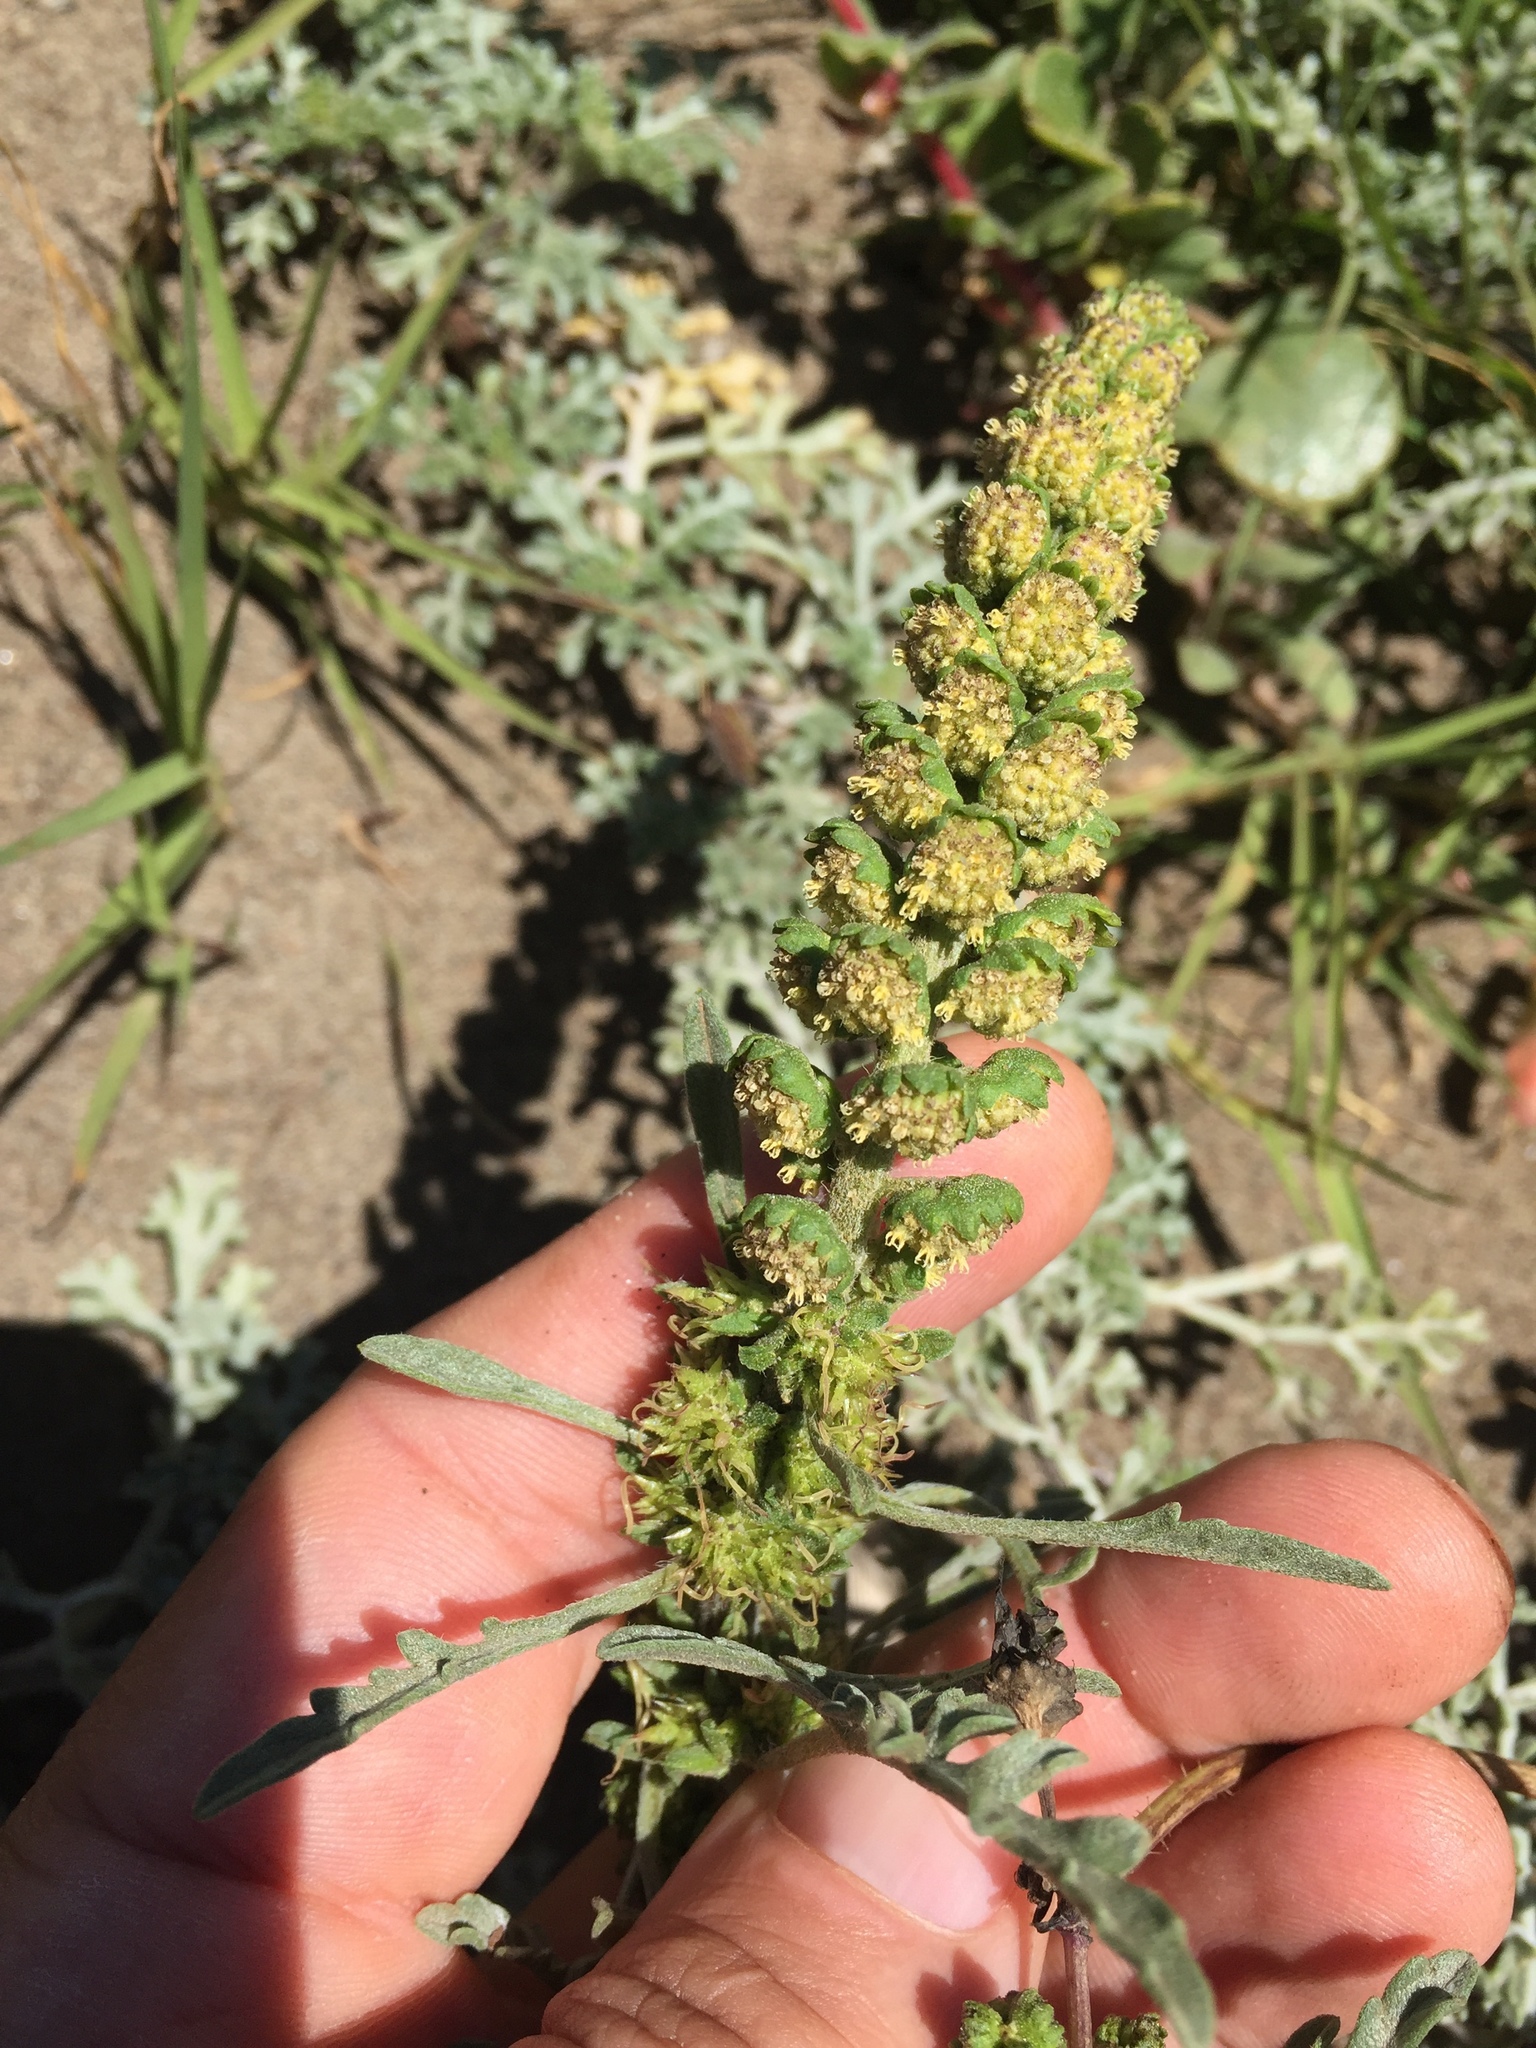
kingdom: Plantae
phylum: Tracheophyta
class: Magnoliopsida
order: Asterales
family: Asteraceae
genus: Ambrosia
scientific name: Ambrosia chamissonis
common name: Beachbur
